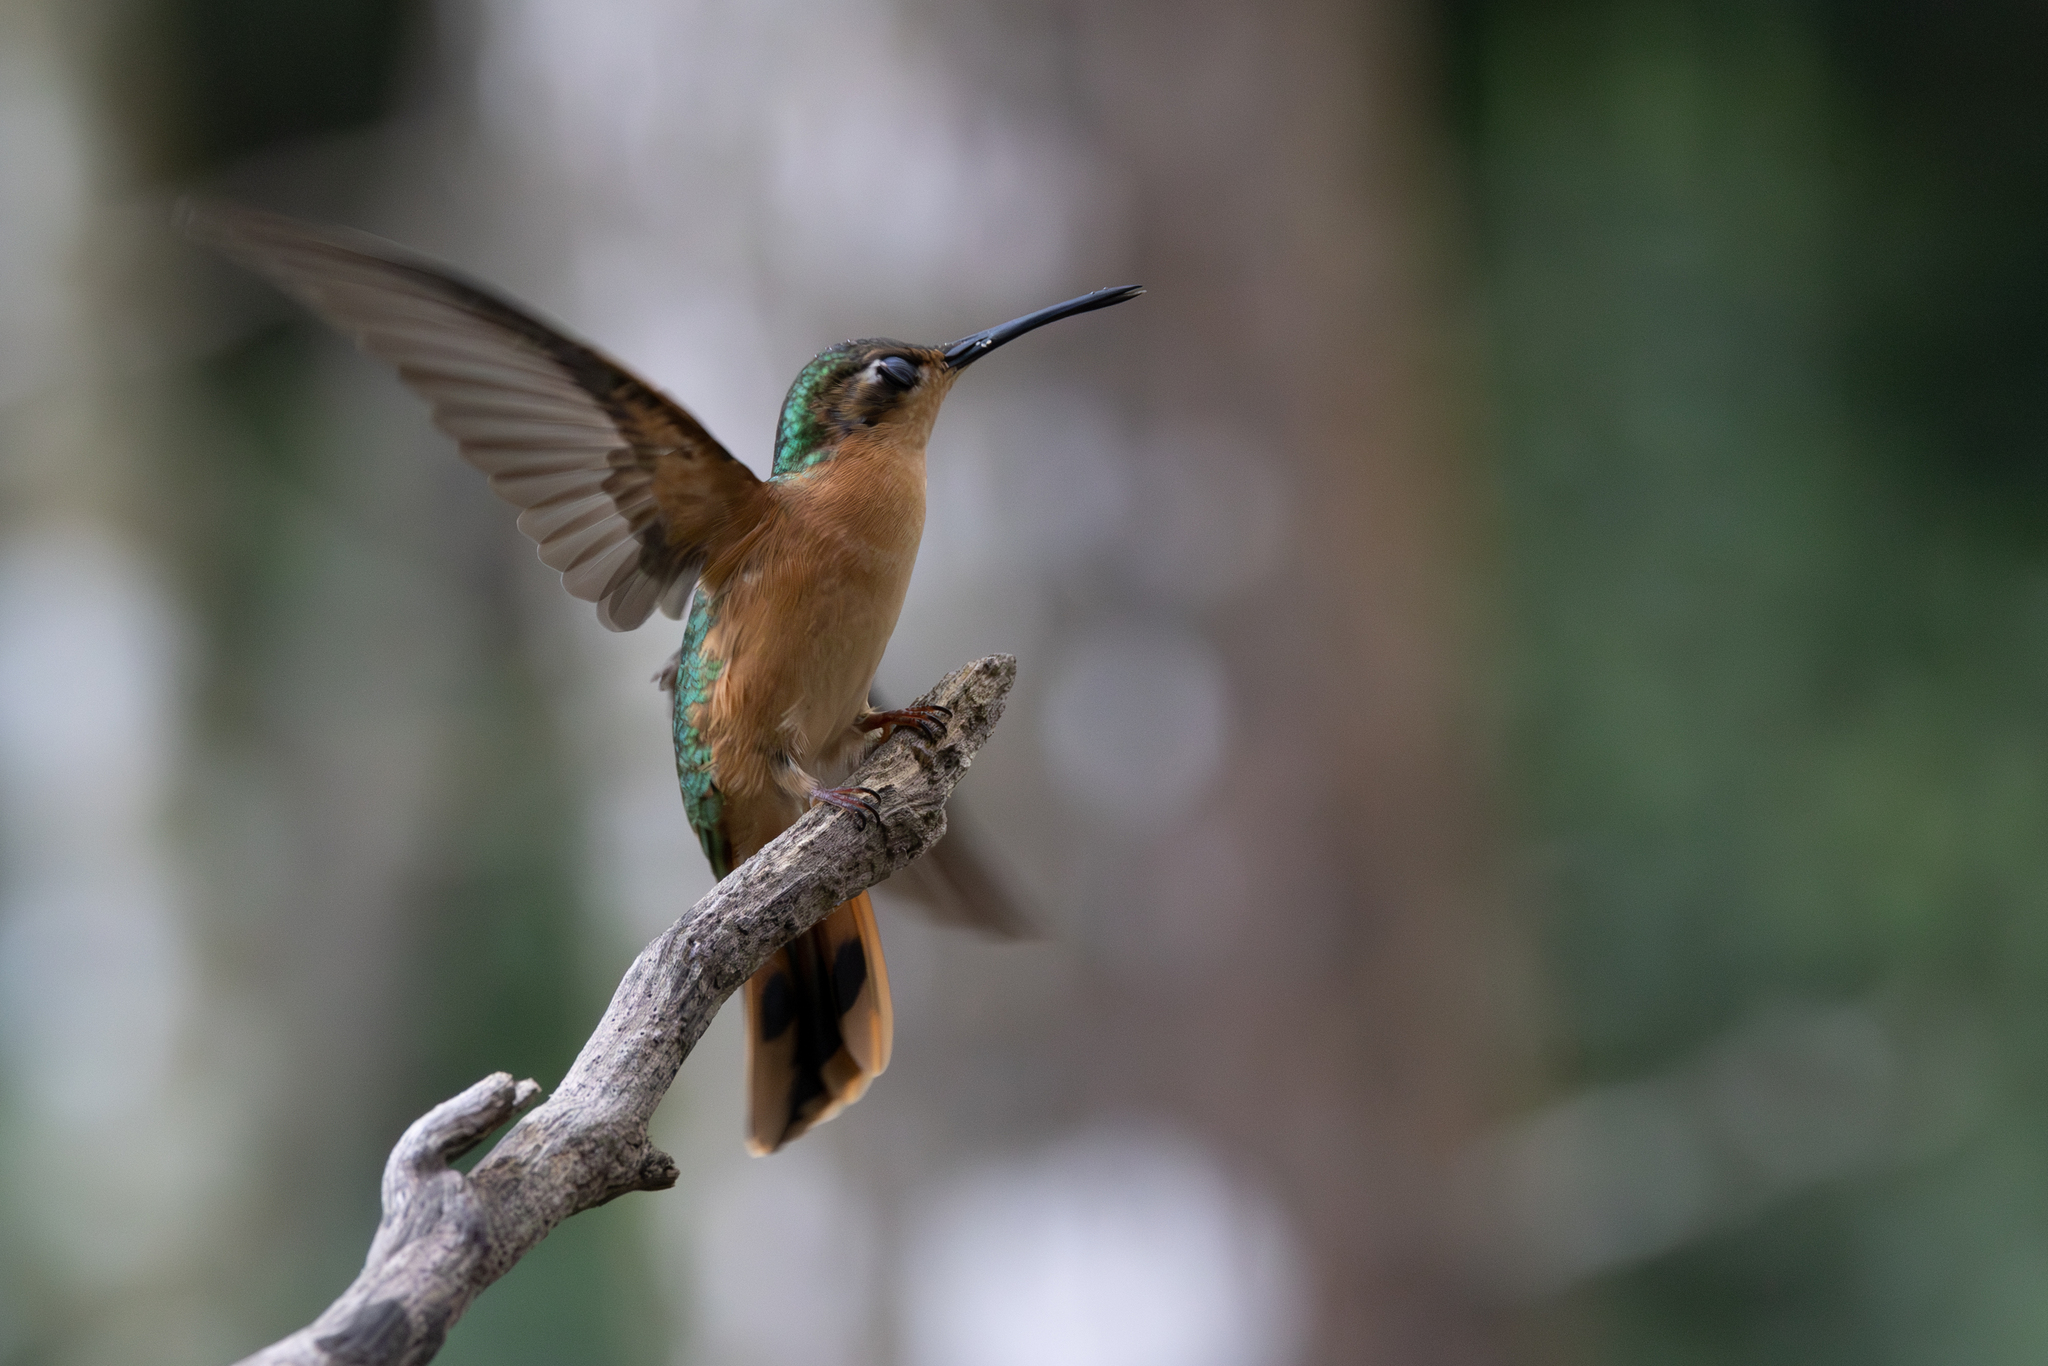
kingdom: Animalia
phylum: Chordata
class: Aves
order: Apodiformes
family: Trochilidae
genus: Pampa
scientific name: Pampa rufa
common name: Rufous sabrewing
